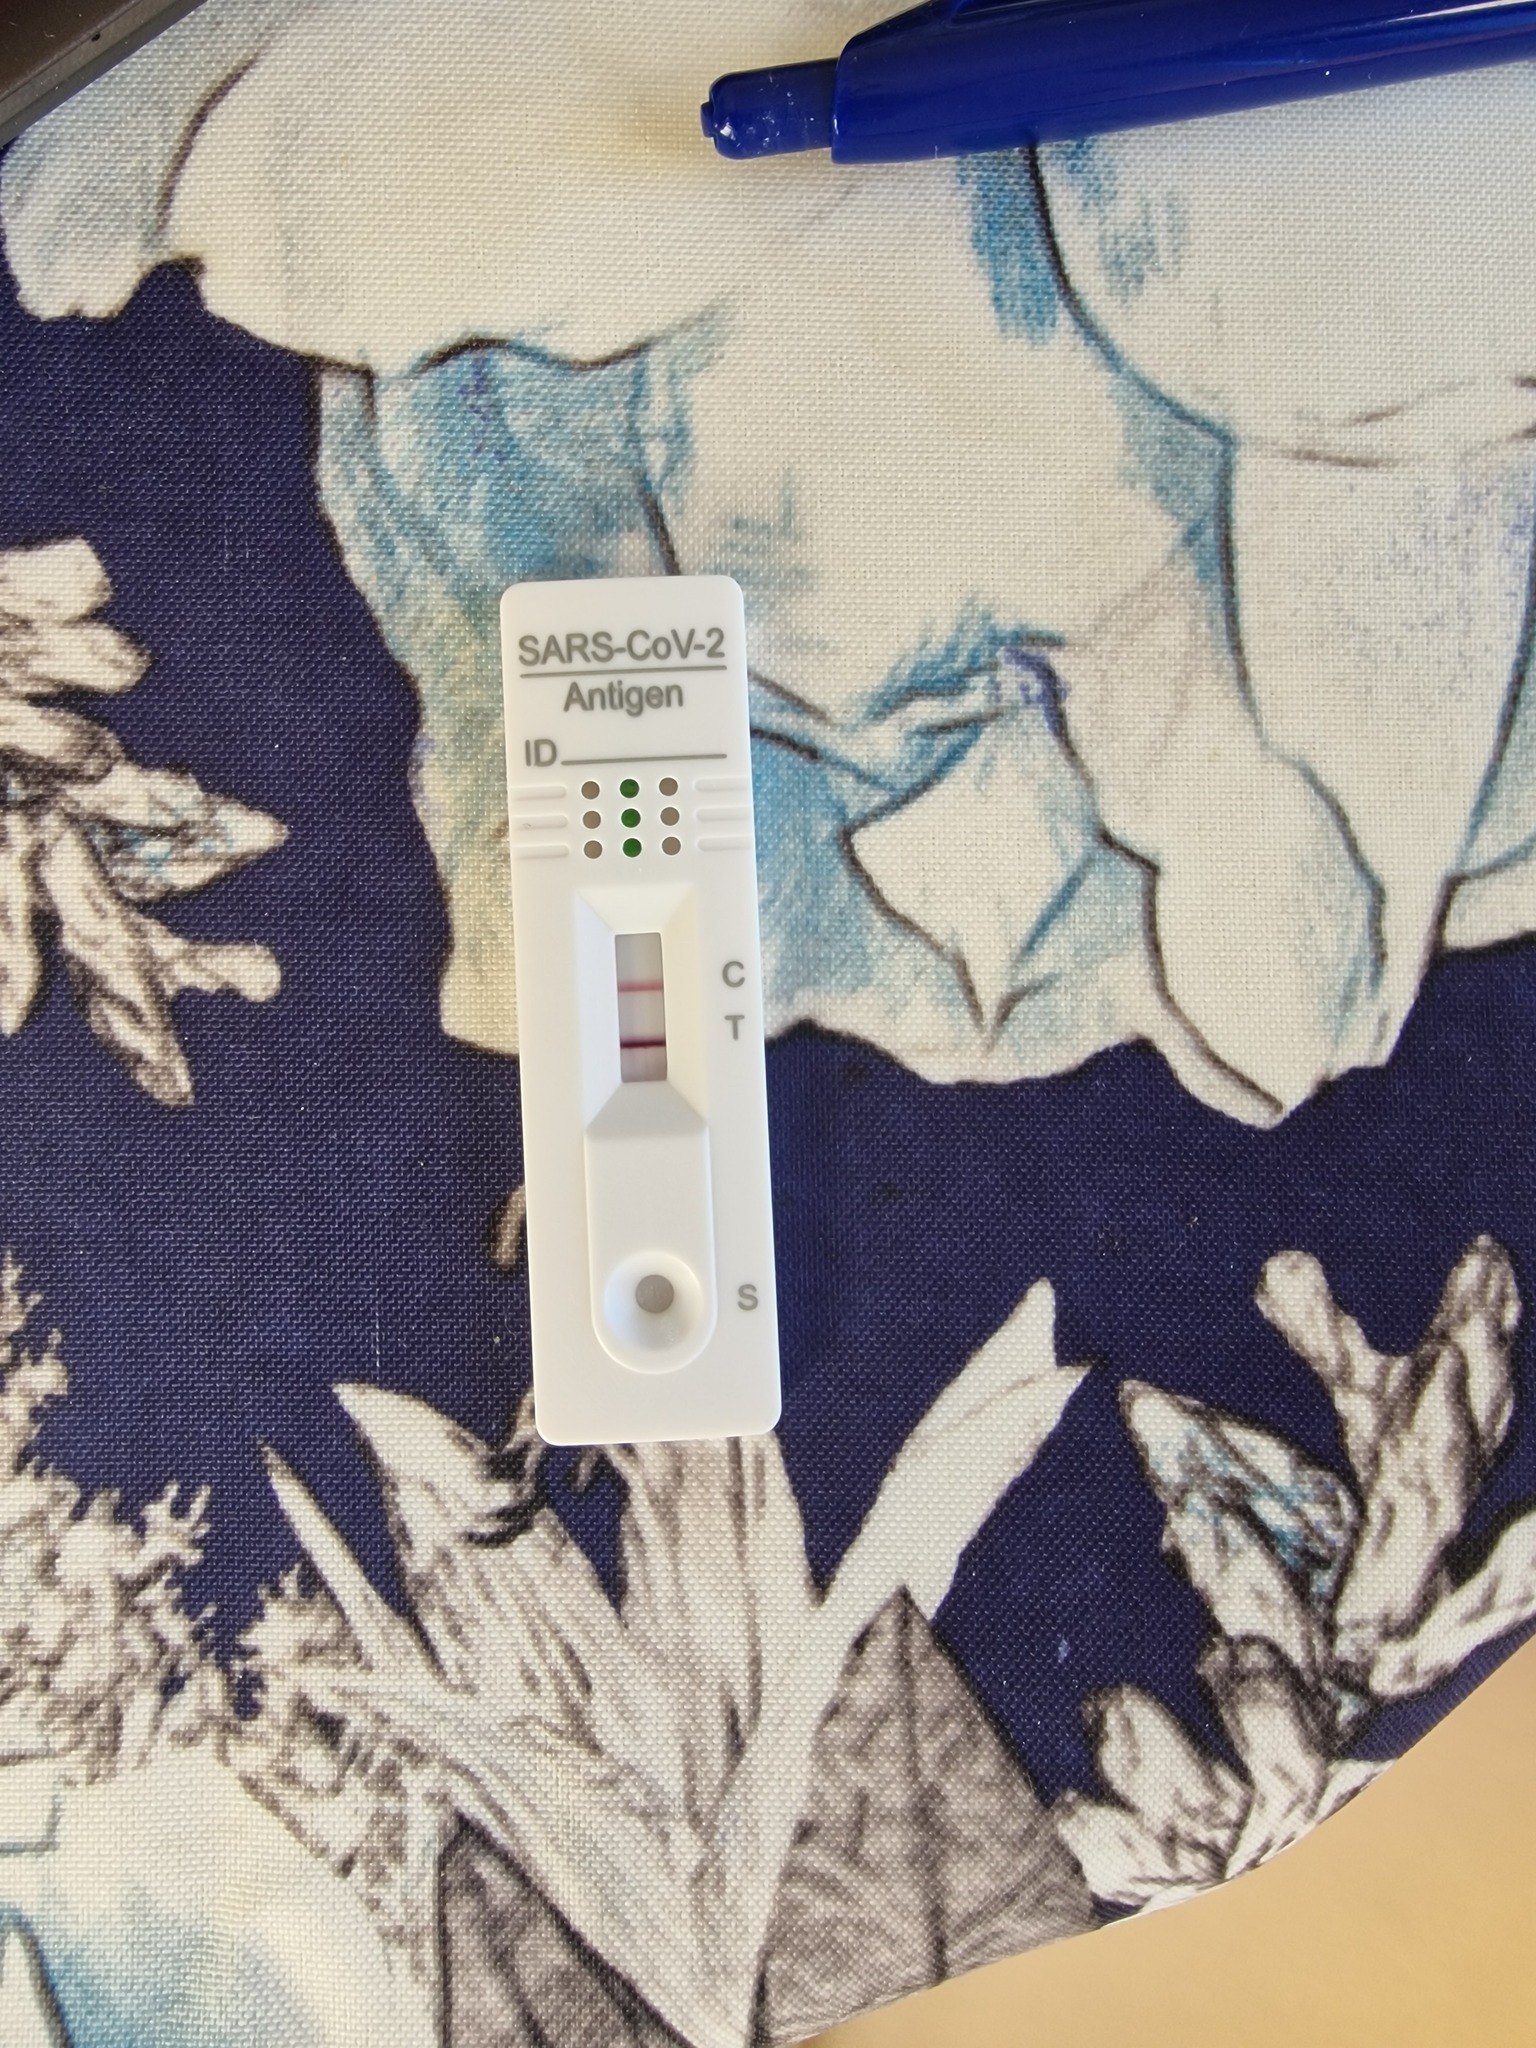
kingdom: Viruses
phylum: Pisuviricota
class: Pisoniviricetes
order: Nidovirales
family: Coronaviridae
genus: Betacoronavirus
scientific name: Betacoronavirus
